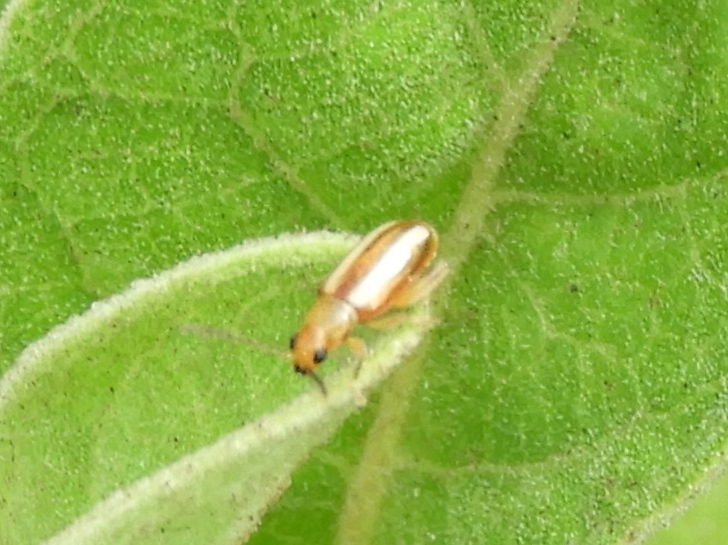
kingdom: Animalia
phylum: Arthropoda
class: Insecta
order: Coleoptera
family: Chrysomelidae
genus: Systena
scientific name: Systena
